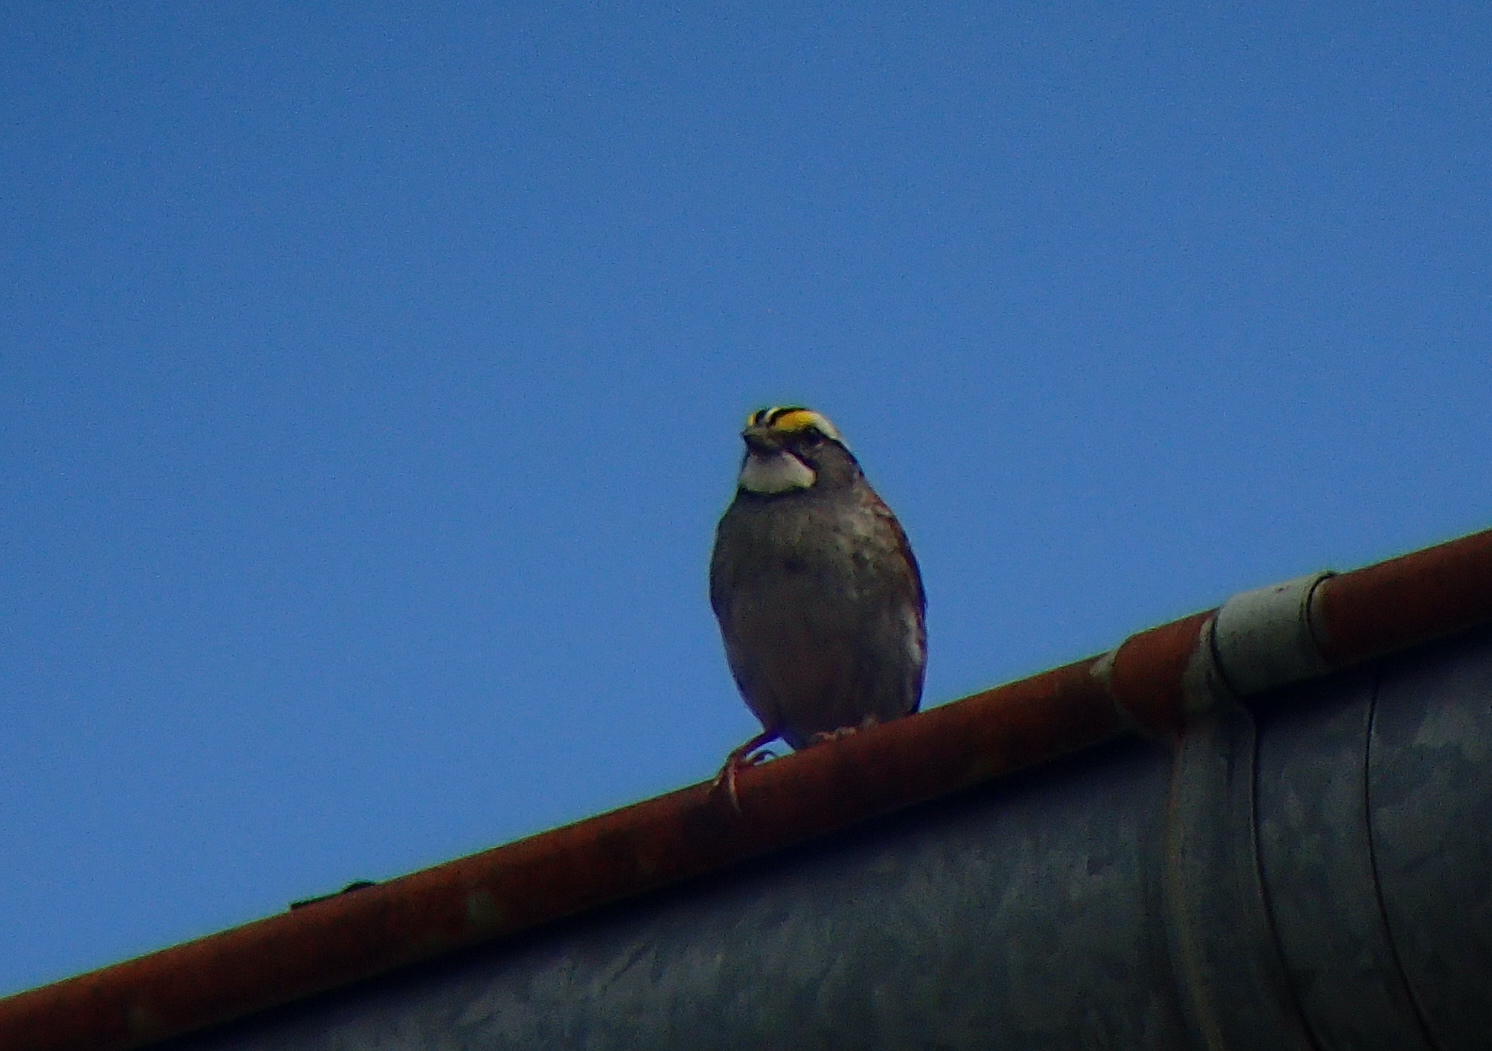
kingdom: Animalia
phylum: Chordata
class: Aves
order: Passeriformes
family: Passerellidae
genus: Zonotrichia
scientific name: Zonotrichia albicollis
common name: White-throated sparrow
